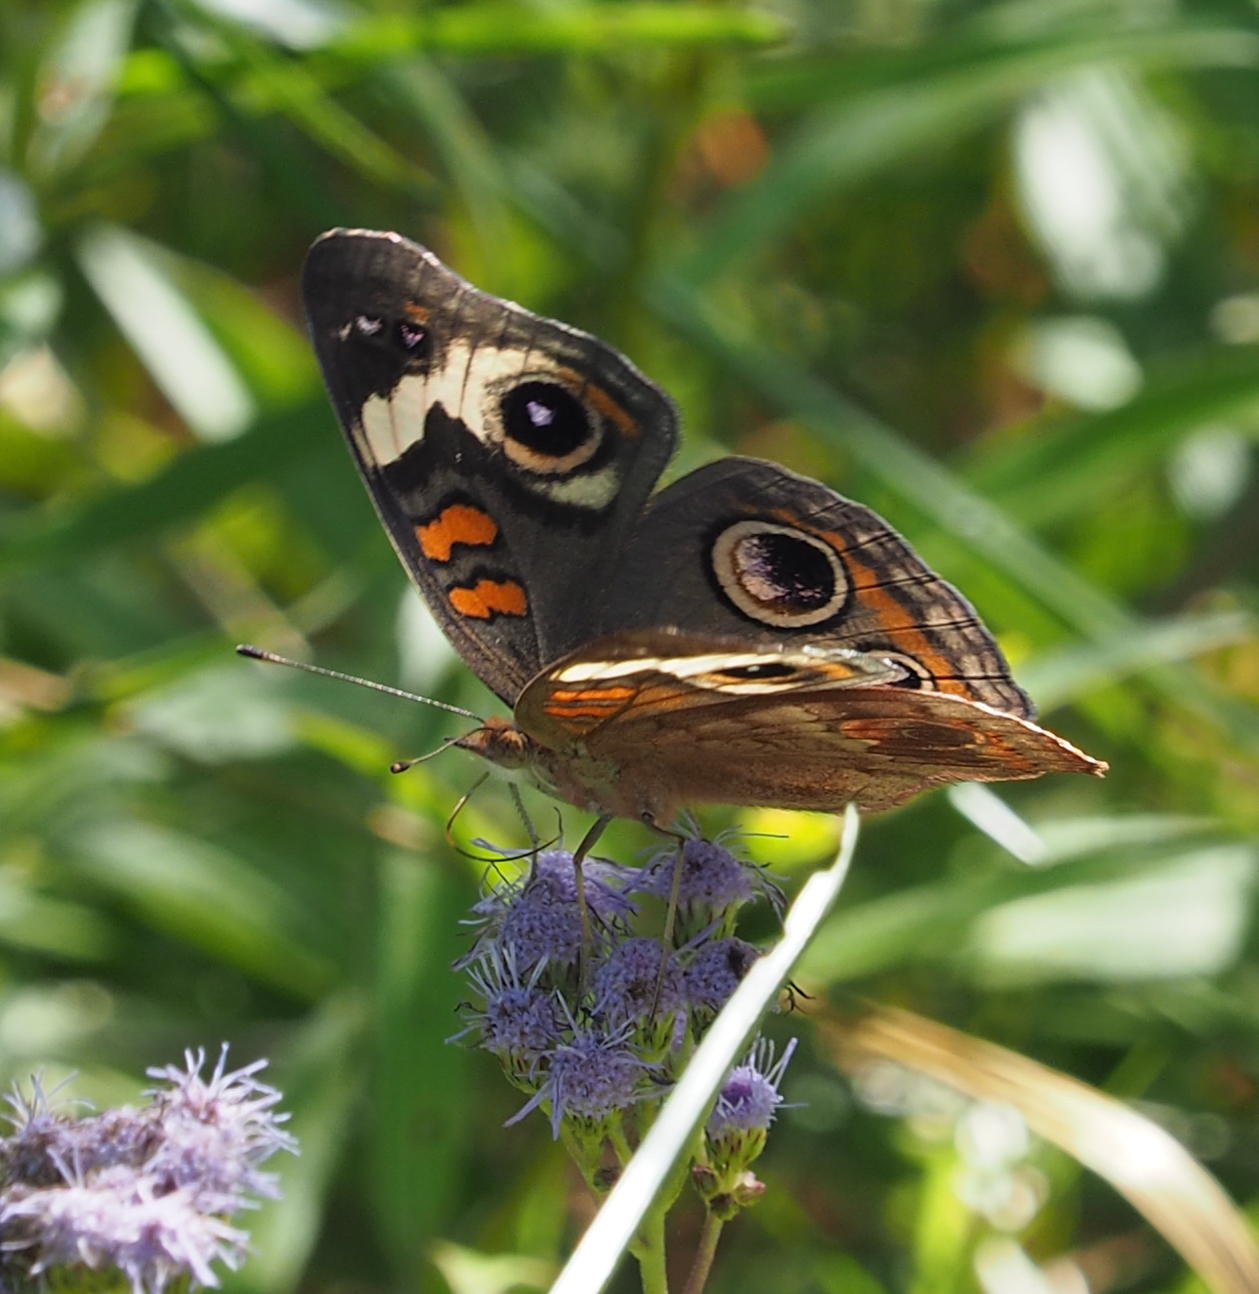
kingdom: Animalia
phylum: Arthropoda
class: Insecta
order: Lepidoptera
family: Nymphalidae
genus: Junonia
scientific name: Junonia coenia
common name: Common buckeye
